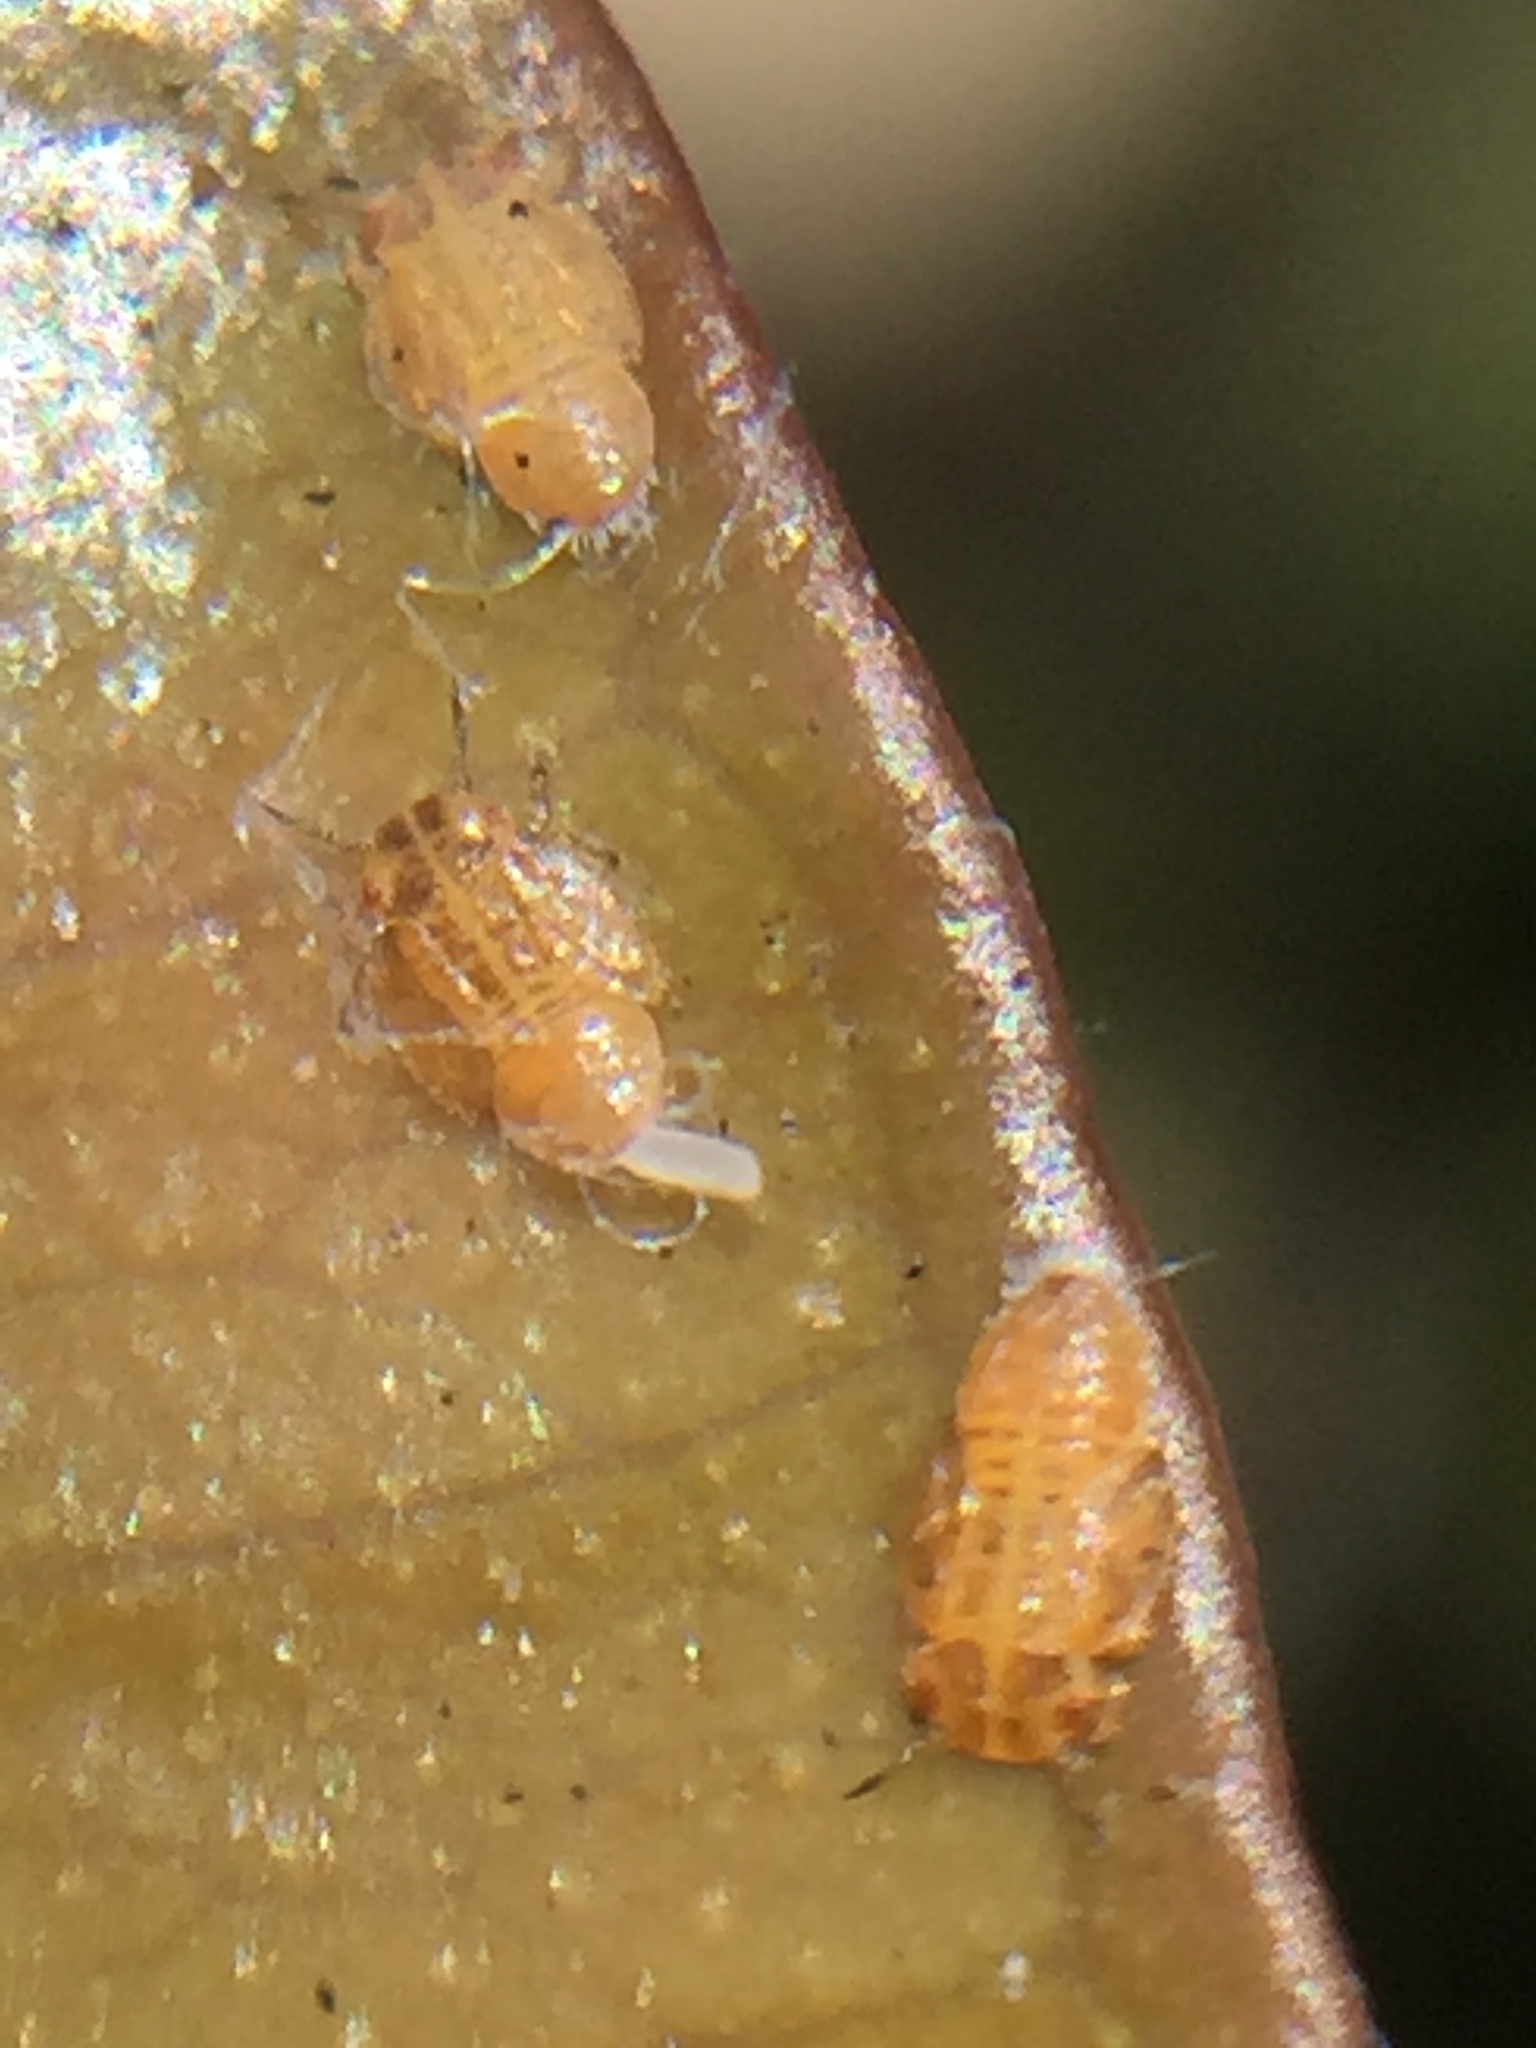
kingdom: Animalia
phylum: Arthropoda
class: Insecta
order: Hemiptera
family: Aphalaridae
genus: Ctenarytaina
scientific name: Ctenarytaina insularis
